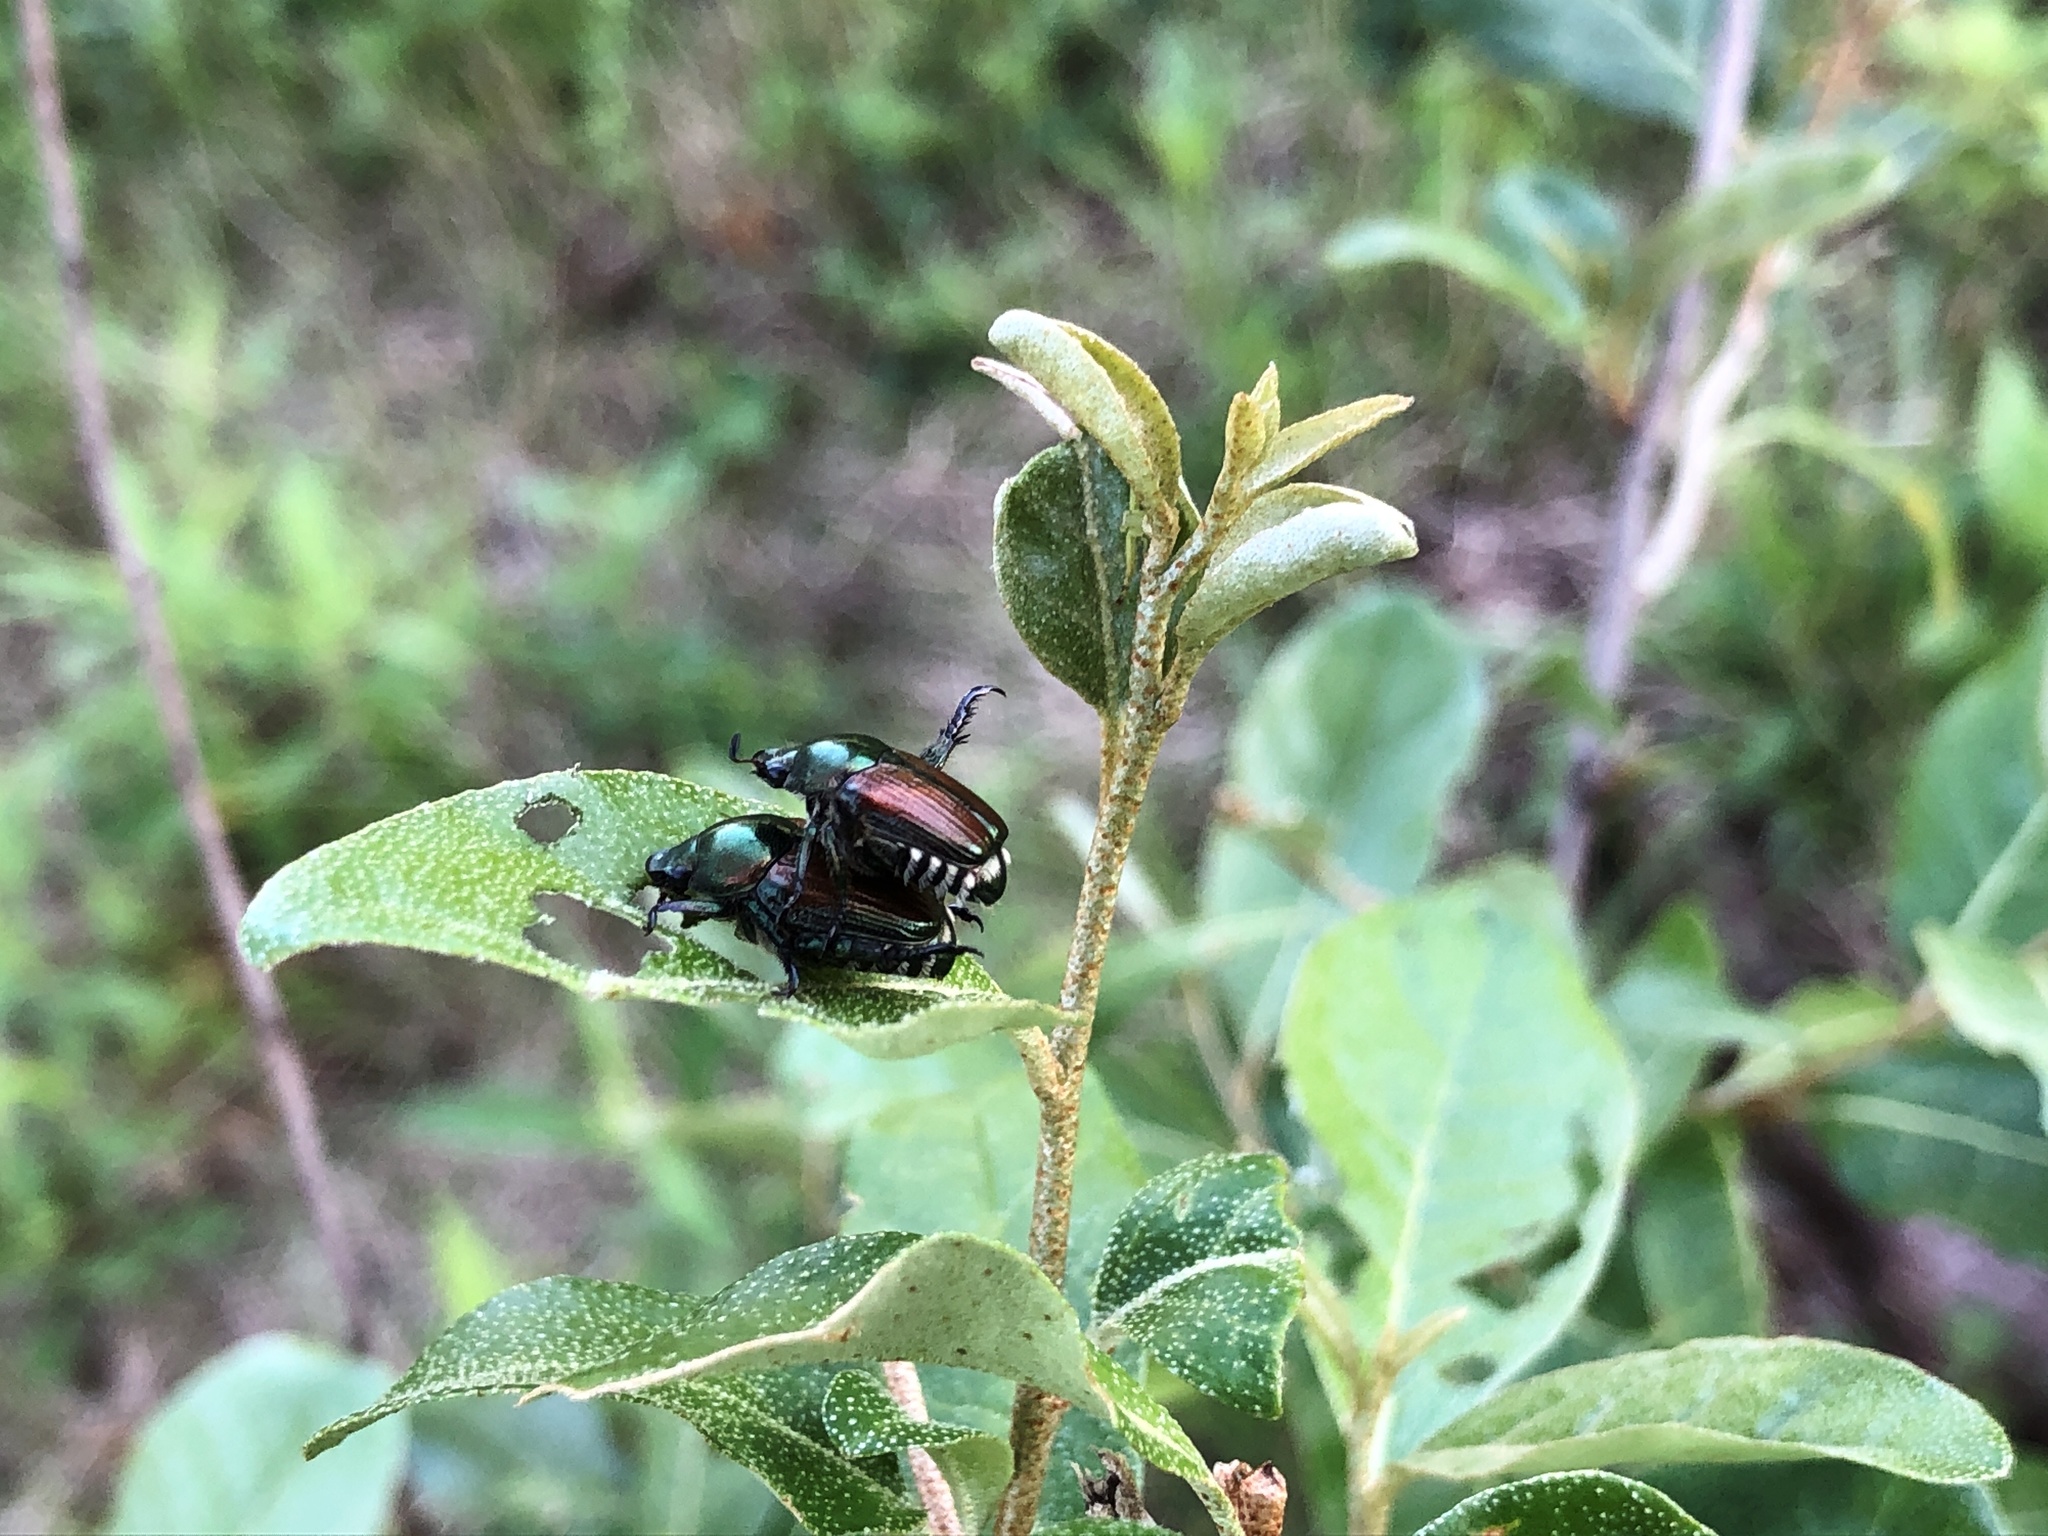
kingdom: Animalia
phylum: Arthropoda
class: Insecta
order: Coleoptera
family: Scarabaeidae
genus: Popillia
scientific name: Popillia japonica
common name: Japanese beetle
